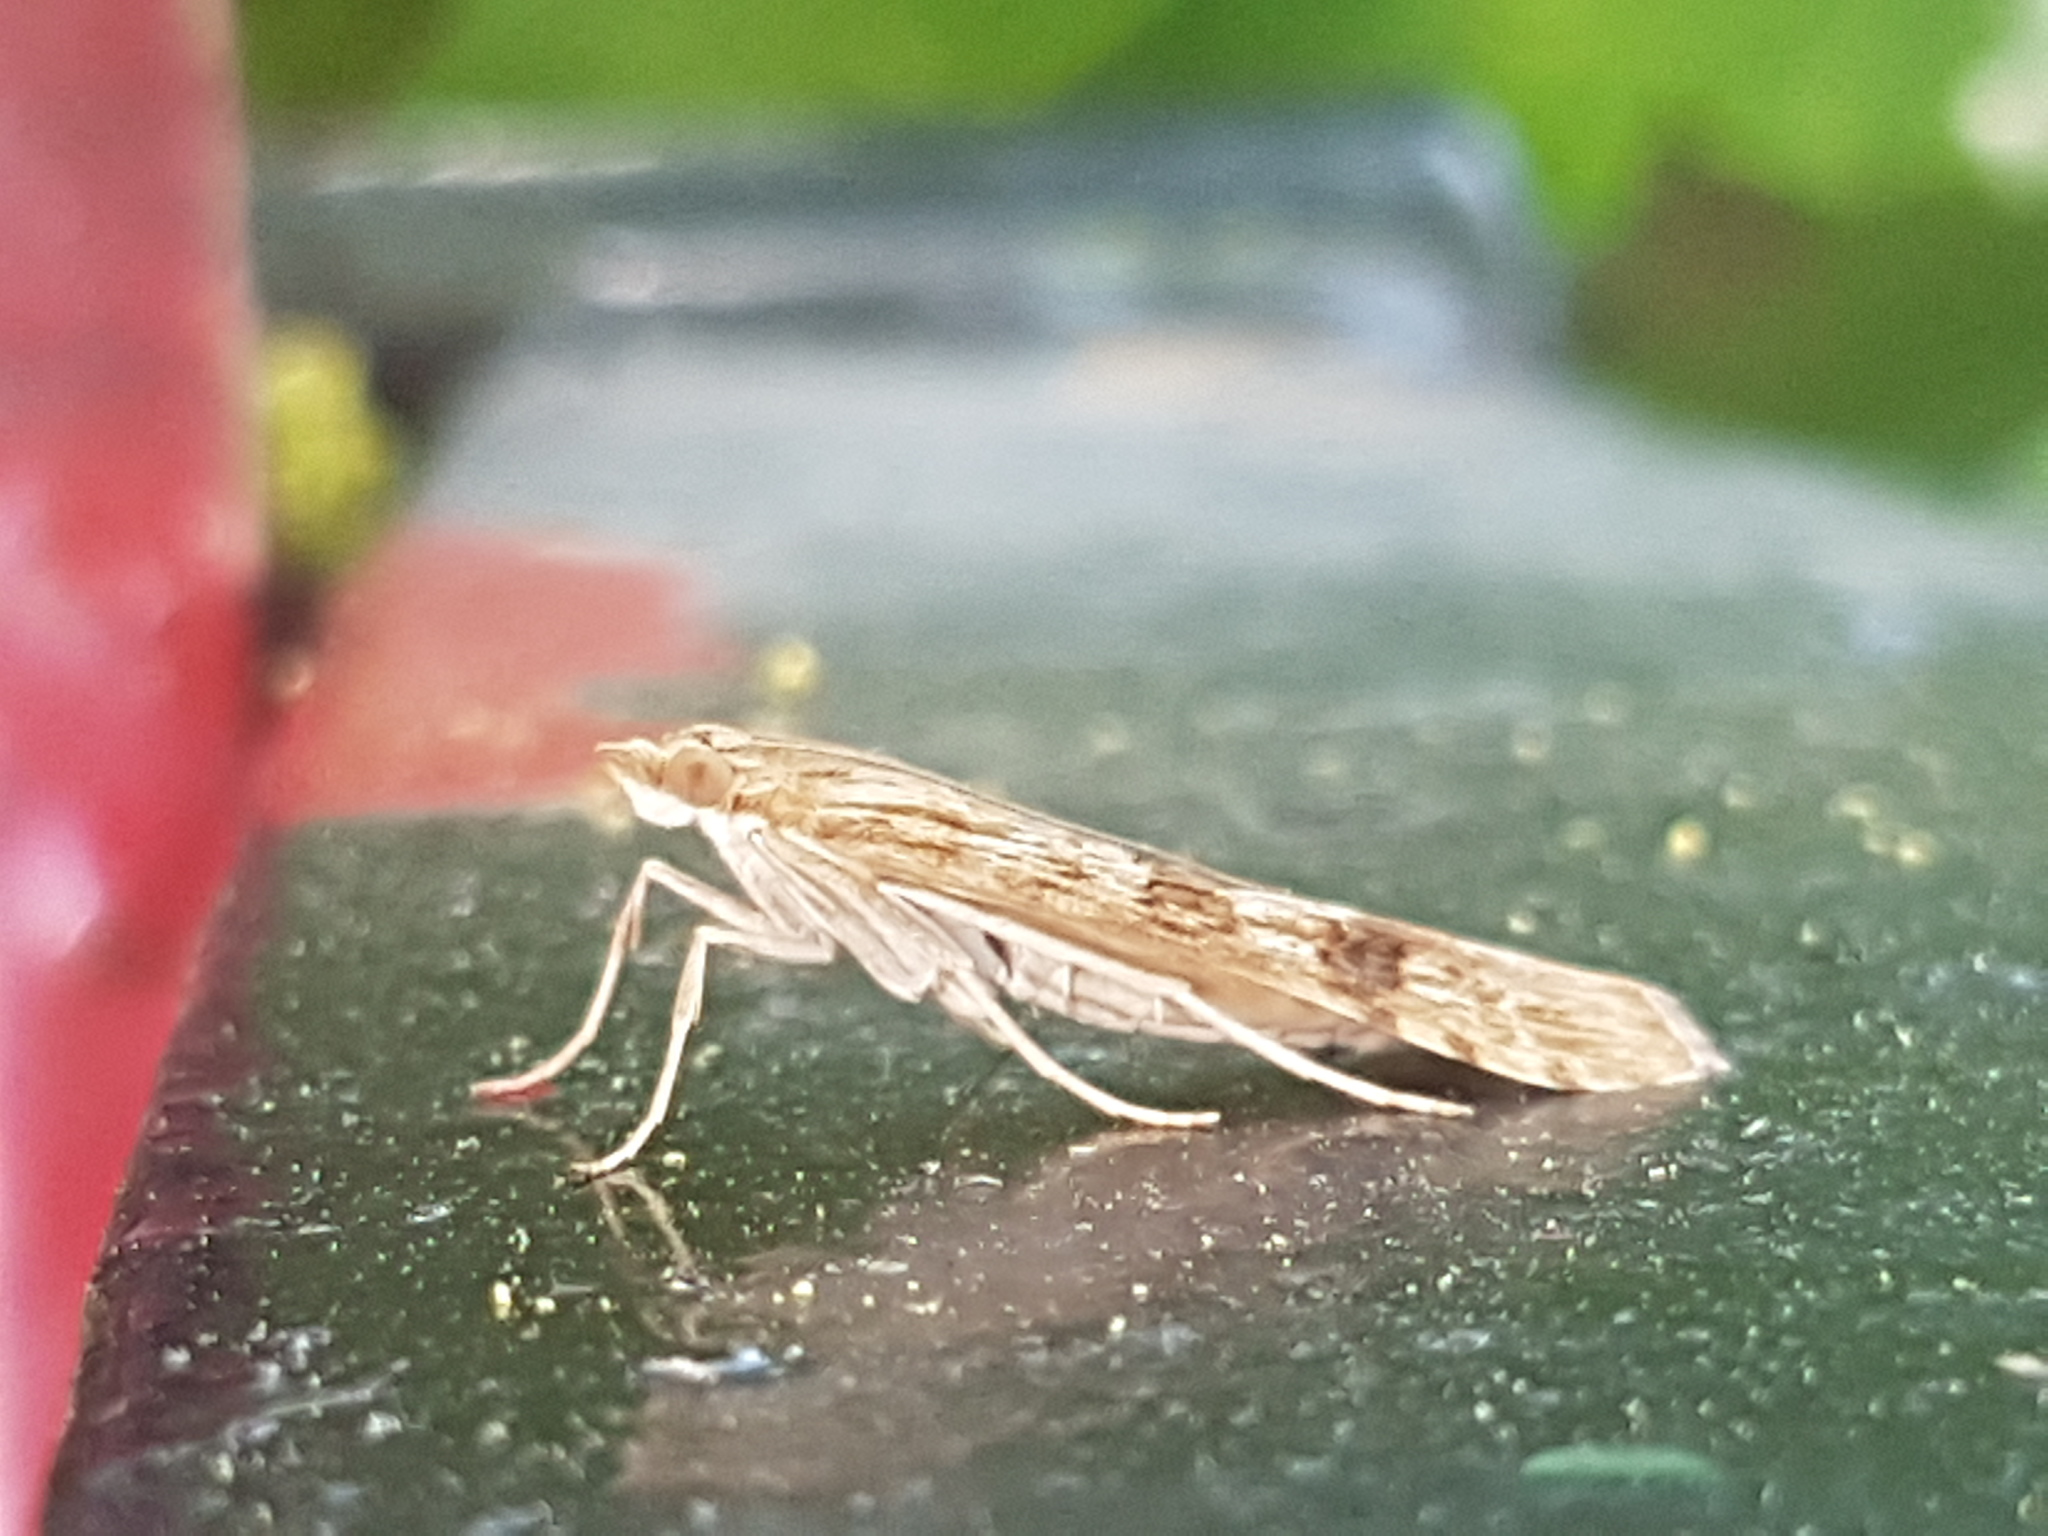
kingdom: Animalia
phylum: Arthropoda
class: Insecta
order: Lepidoptera
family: Crambidae
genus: Nomophila
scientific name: Nomophila noctuella
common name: Rush veneer
